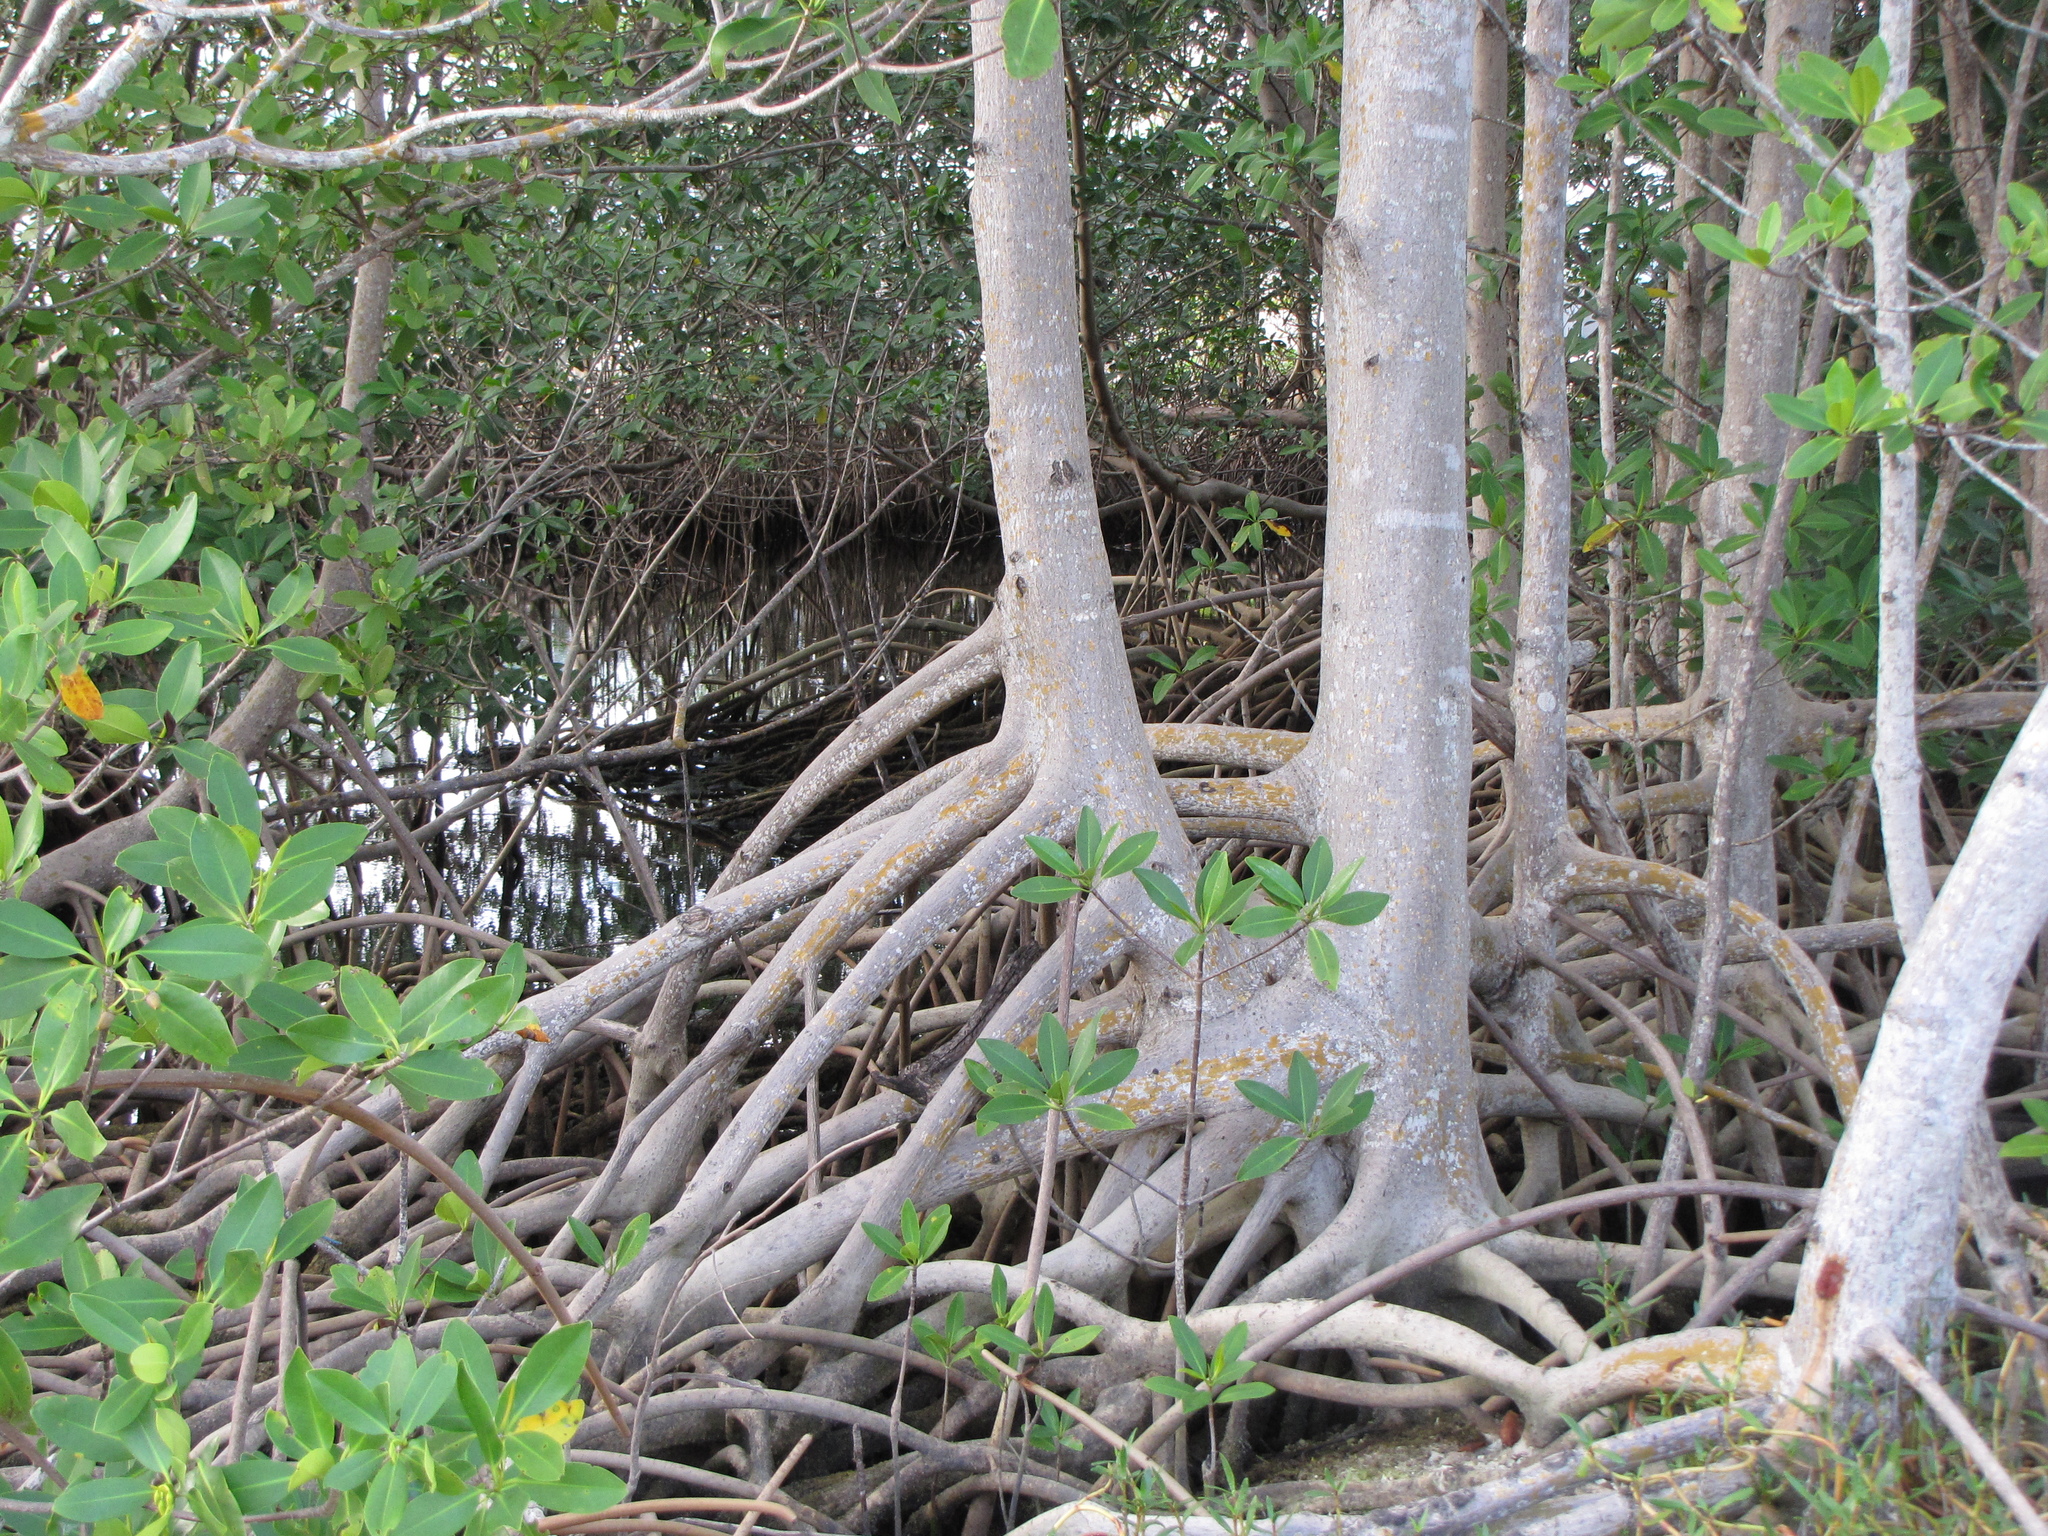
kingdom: Plantae
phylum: Tracheophyta
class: Magnoliopsida
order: Malpighiales
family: Rhizophoraceae
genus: Rhizophora
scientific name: Rhizophora mangle
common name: Red mangrove
